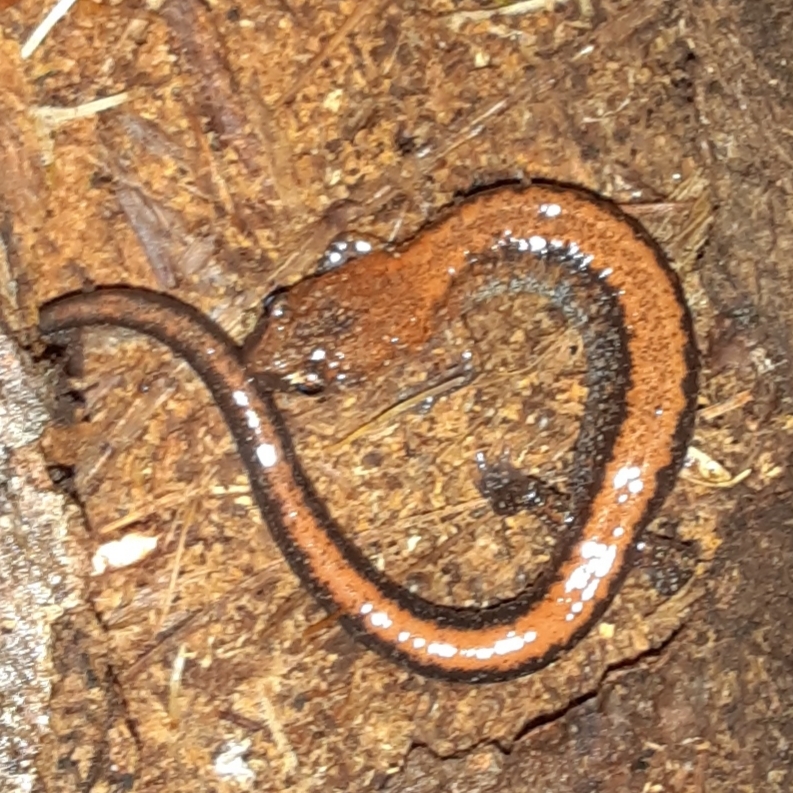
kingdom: Animalia
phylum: Chordata
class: Amphibia
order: Caudata
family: Plethodontidae
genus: Plethodon
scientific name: Plethodon cinereus
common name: Redback salamander
